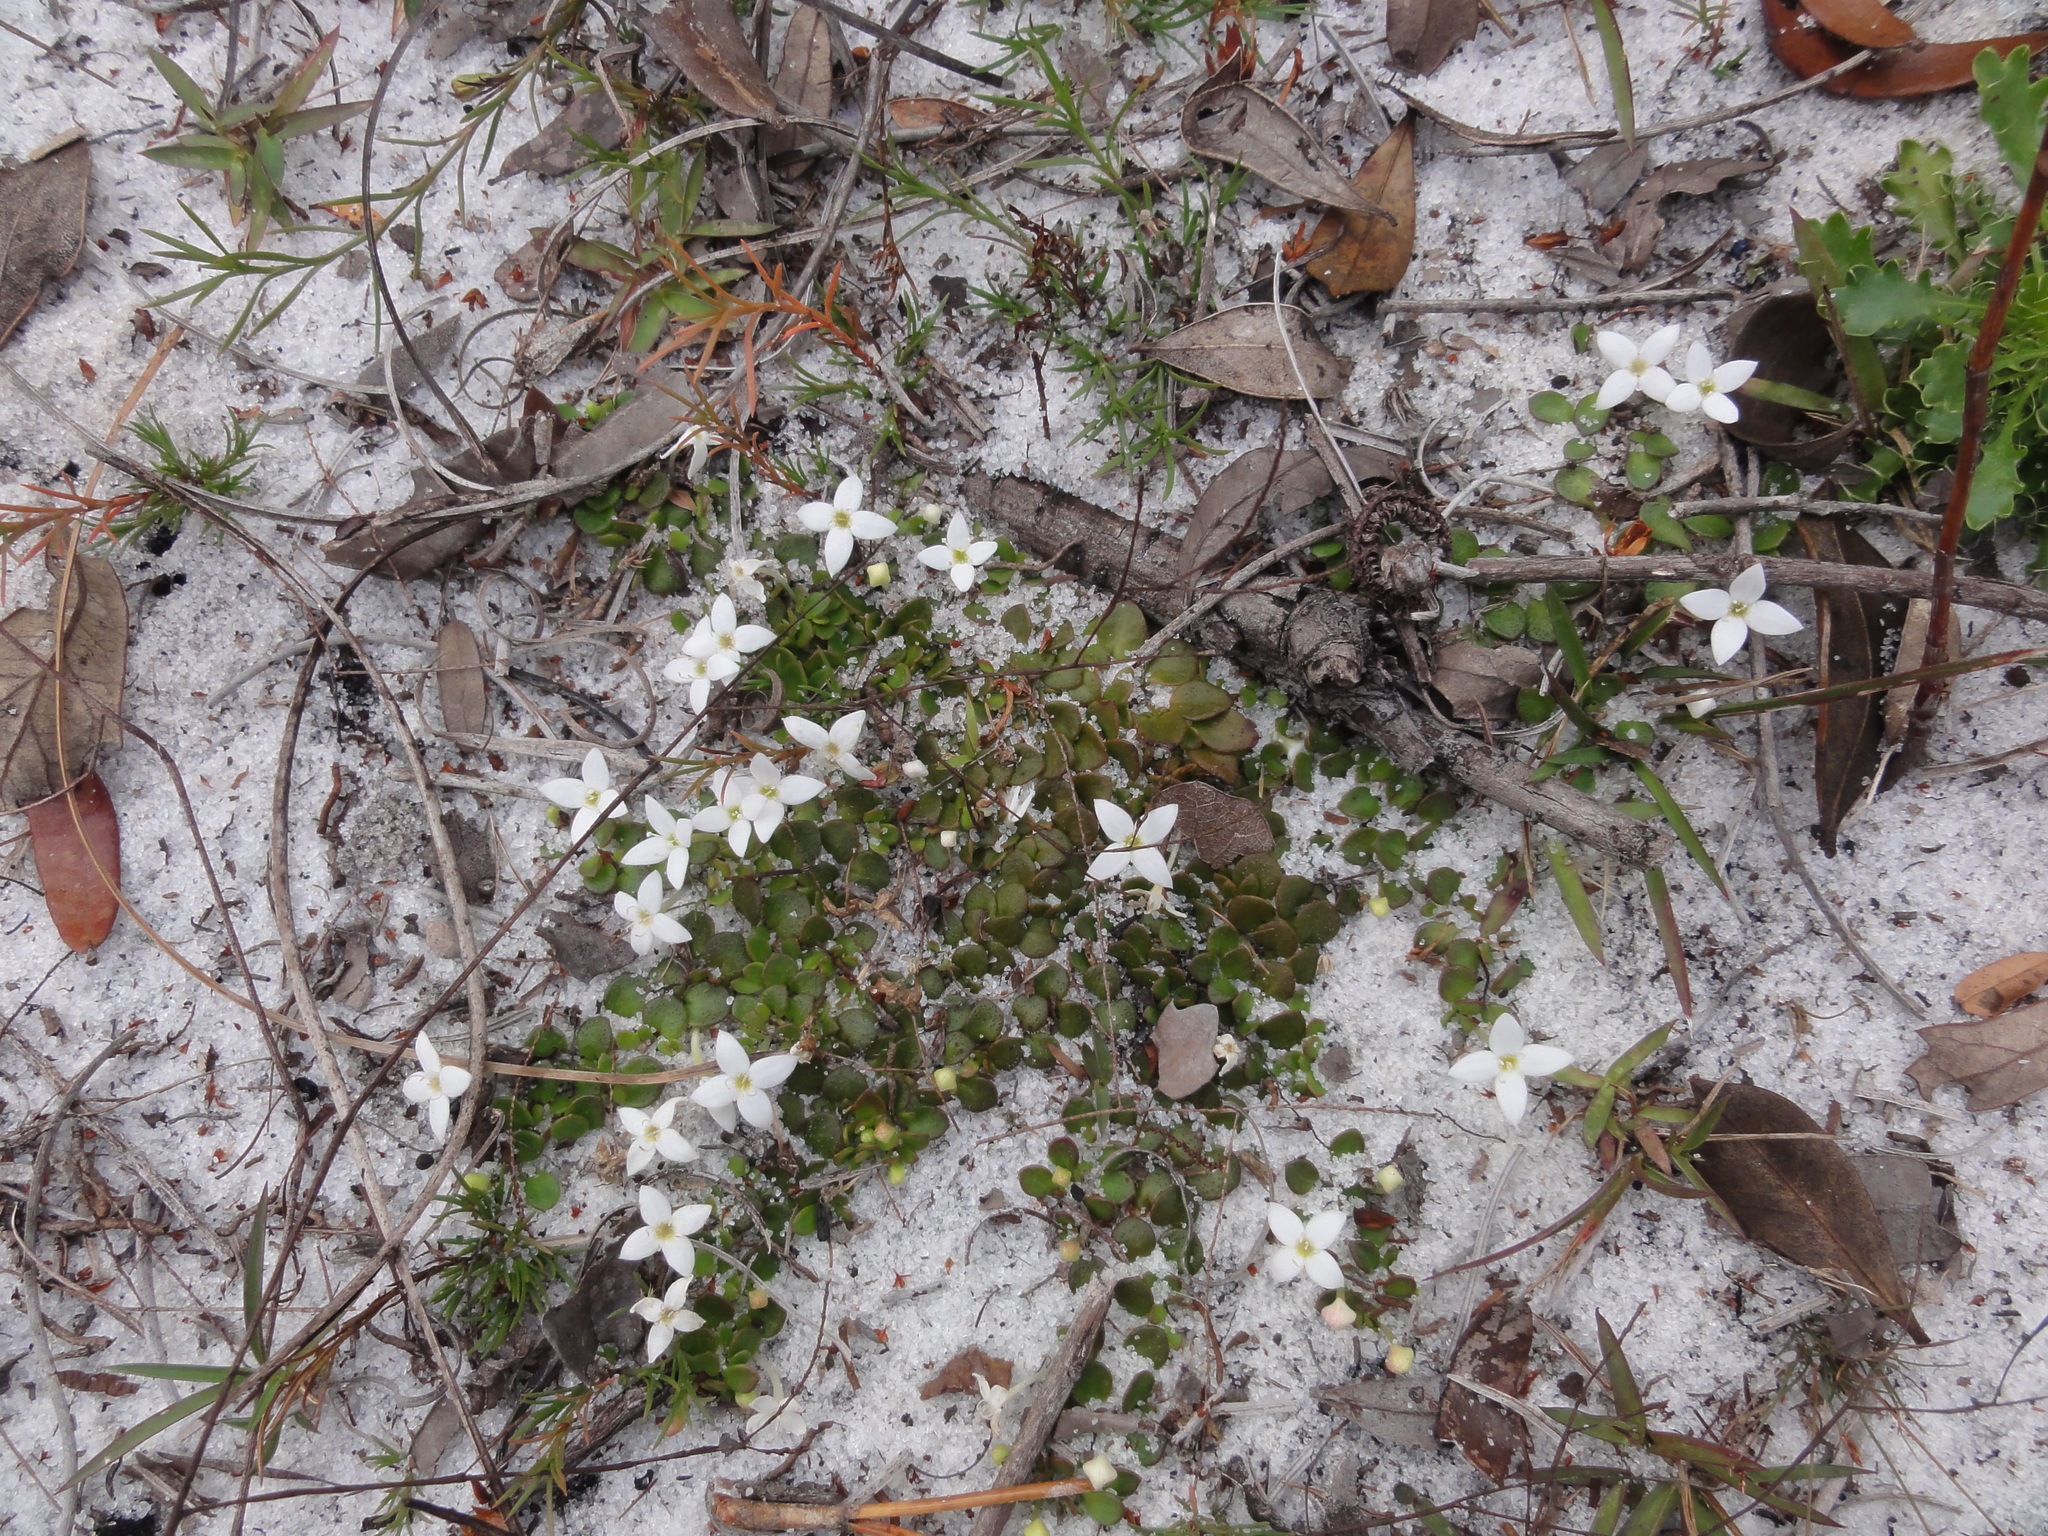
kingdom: Plantae
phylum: Tracheophyta
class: Magnoliopsida
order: Gentianales
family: Rubiaceae
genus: Houstonia
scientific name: Houstonia procumbens
